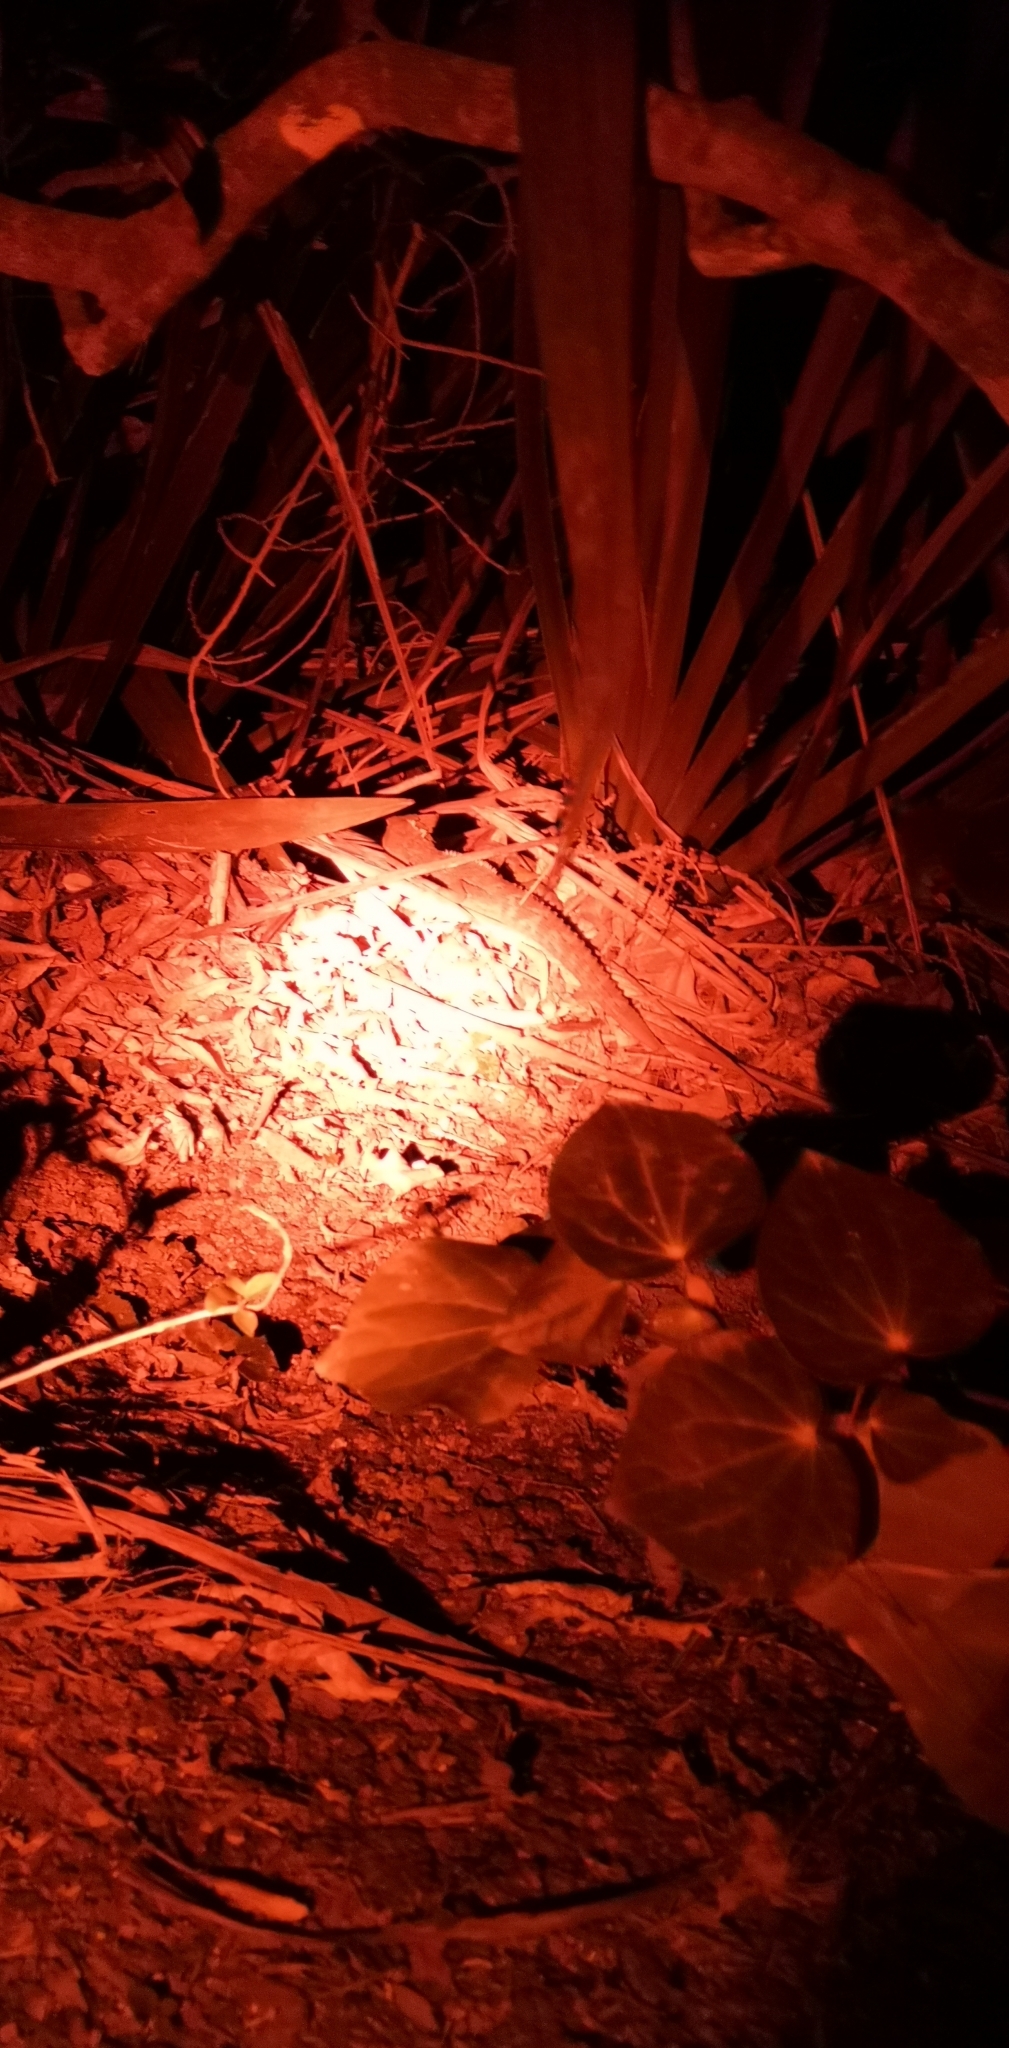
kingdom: Animalia
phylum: Chordata
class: Sphenodontia
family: Sphenodontidae
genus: Sphenodon
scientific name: Sphenodon punctatus
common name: Tuatara
